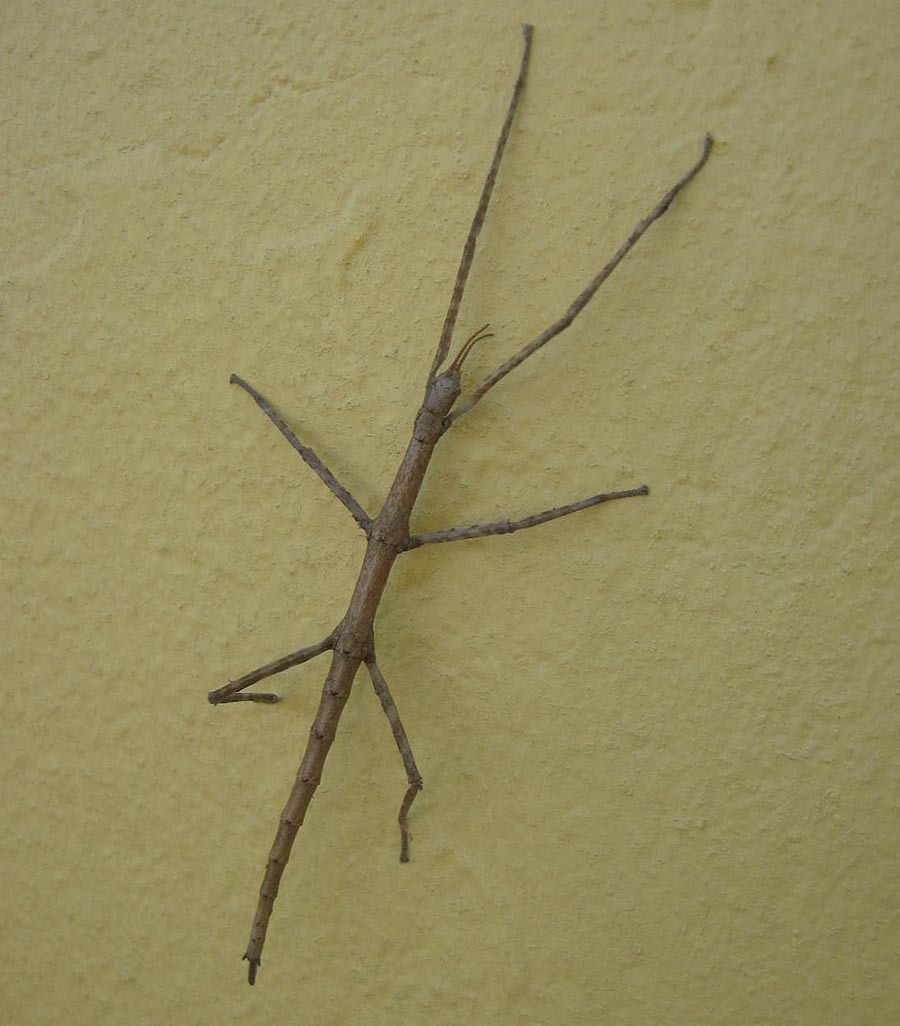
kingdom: Animalia
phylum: Arthropoda
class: Insecta
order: Phasmida
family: Bacillidae
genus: Phalces
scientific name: Phalces brevis
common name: Cape stick insect
